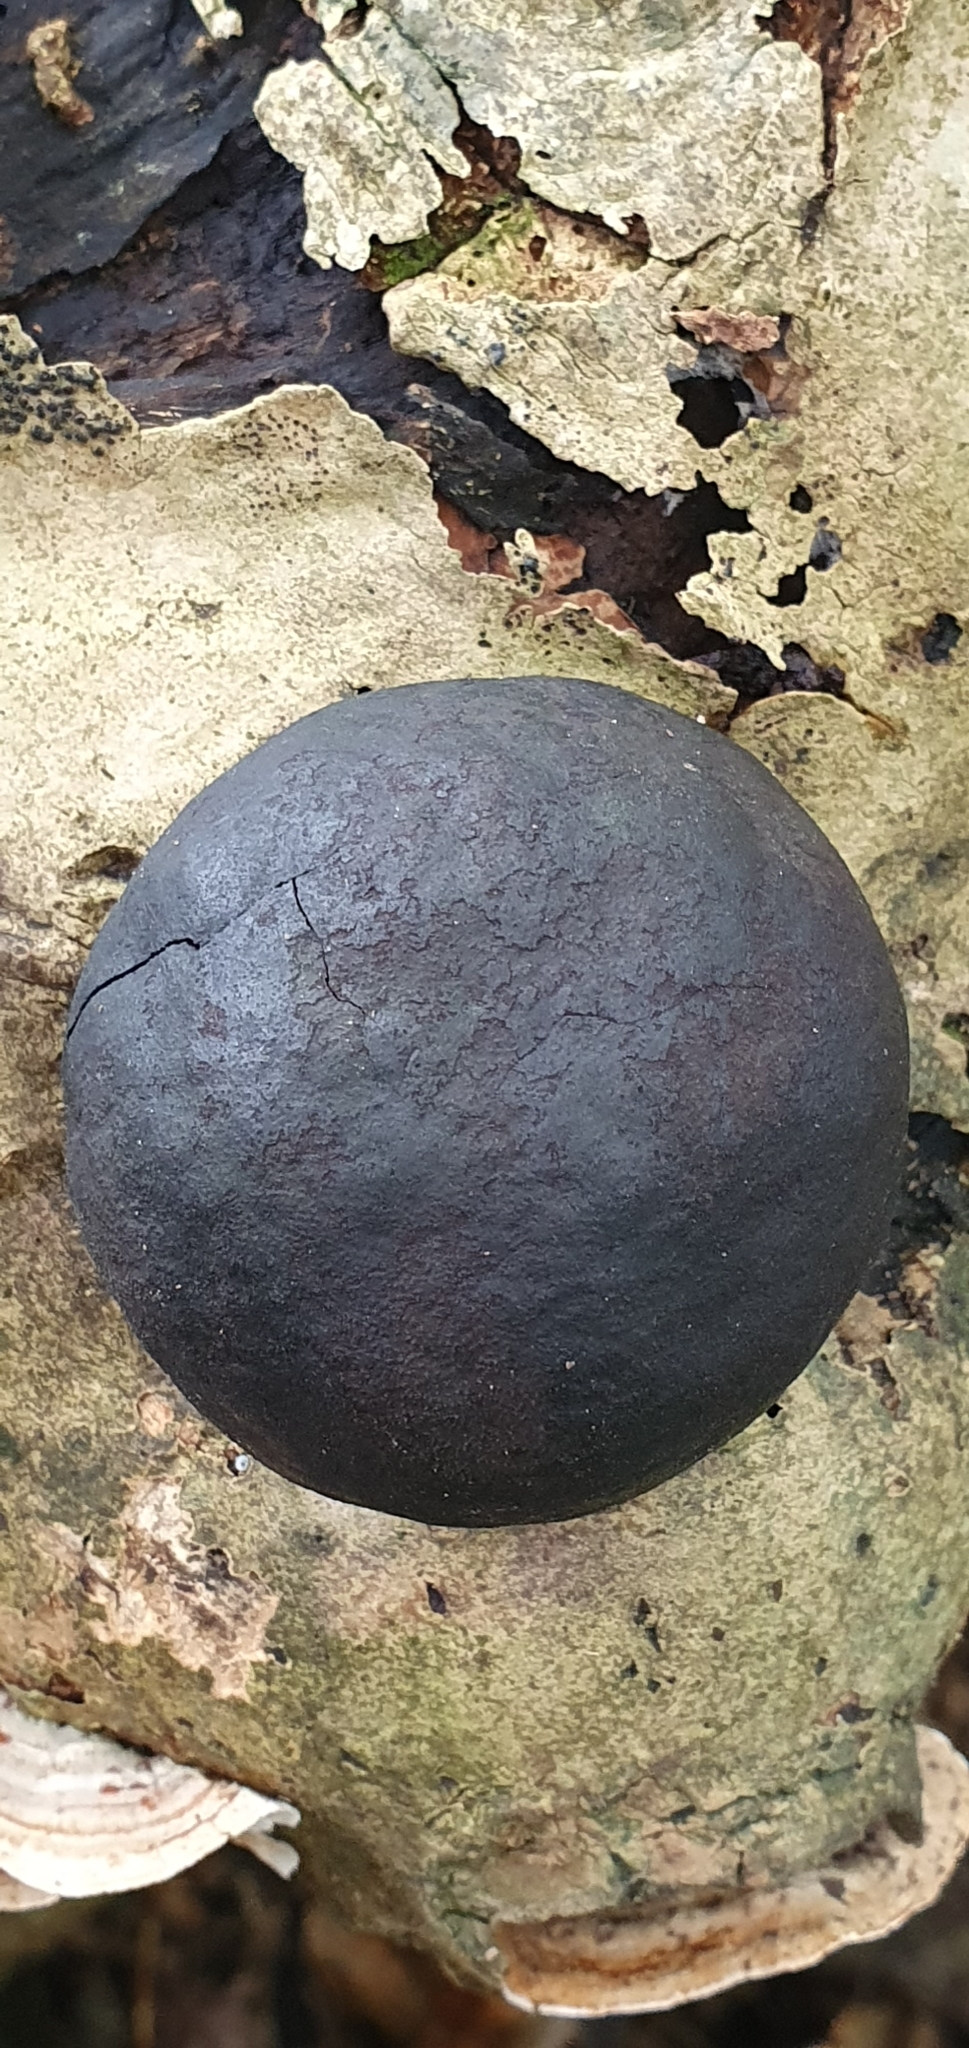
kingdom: Fungi
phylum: Ascomycota
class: Sordariomycetes
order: Xylariales
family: Hypoxylaceae
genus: Daldinia
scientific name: Daldinia concentrica
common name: Cramp balls
